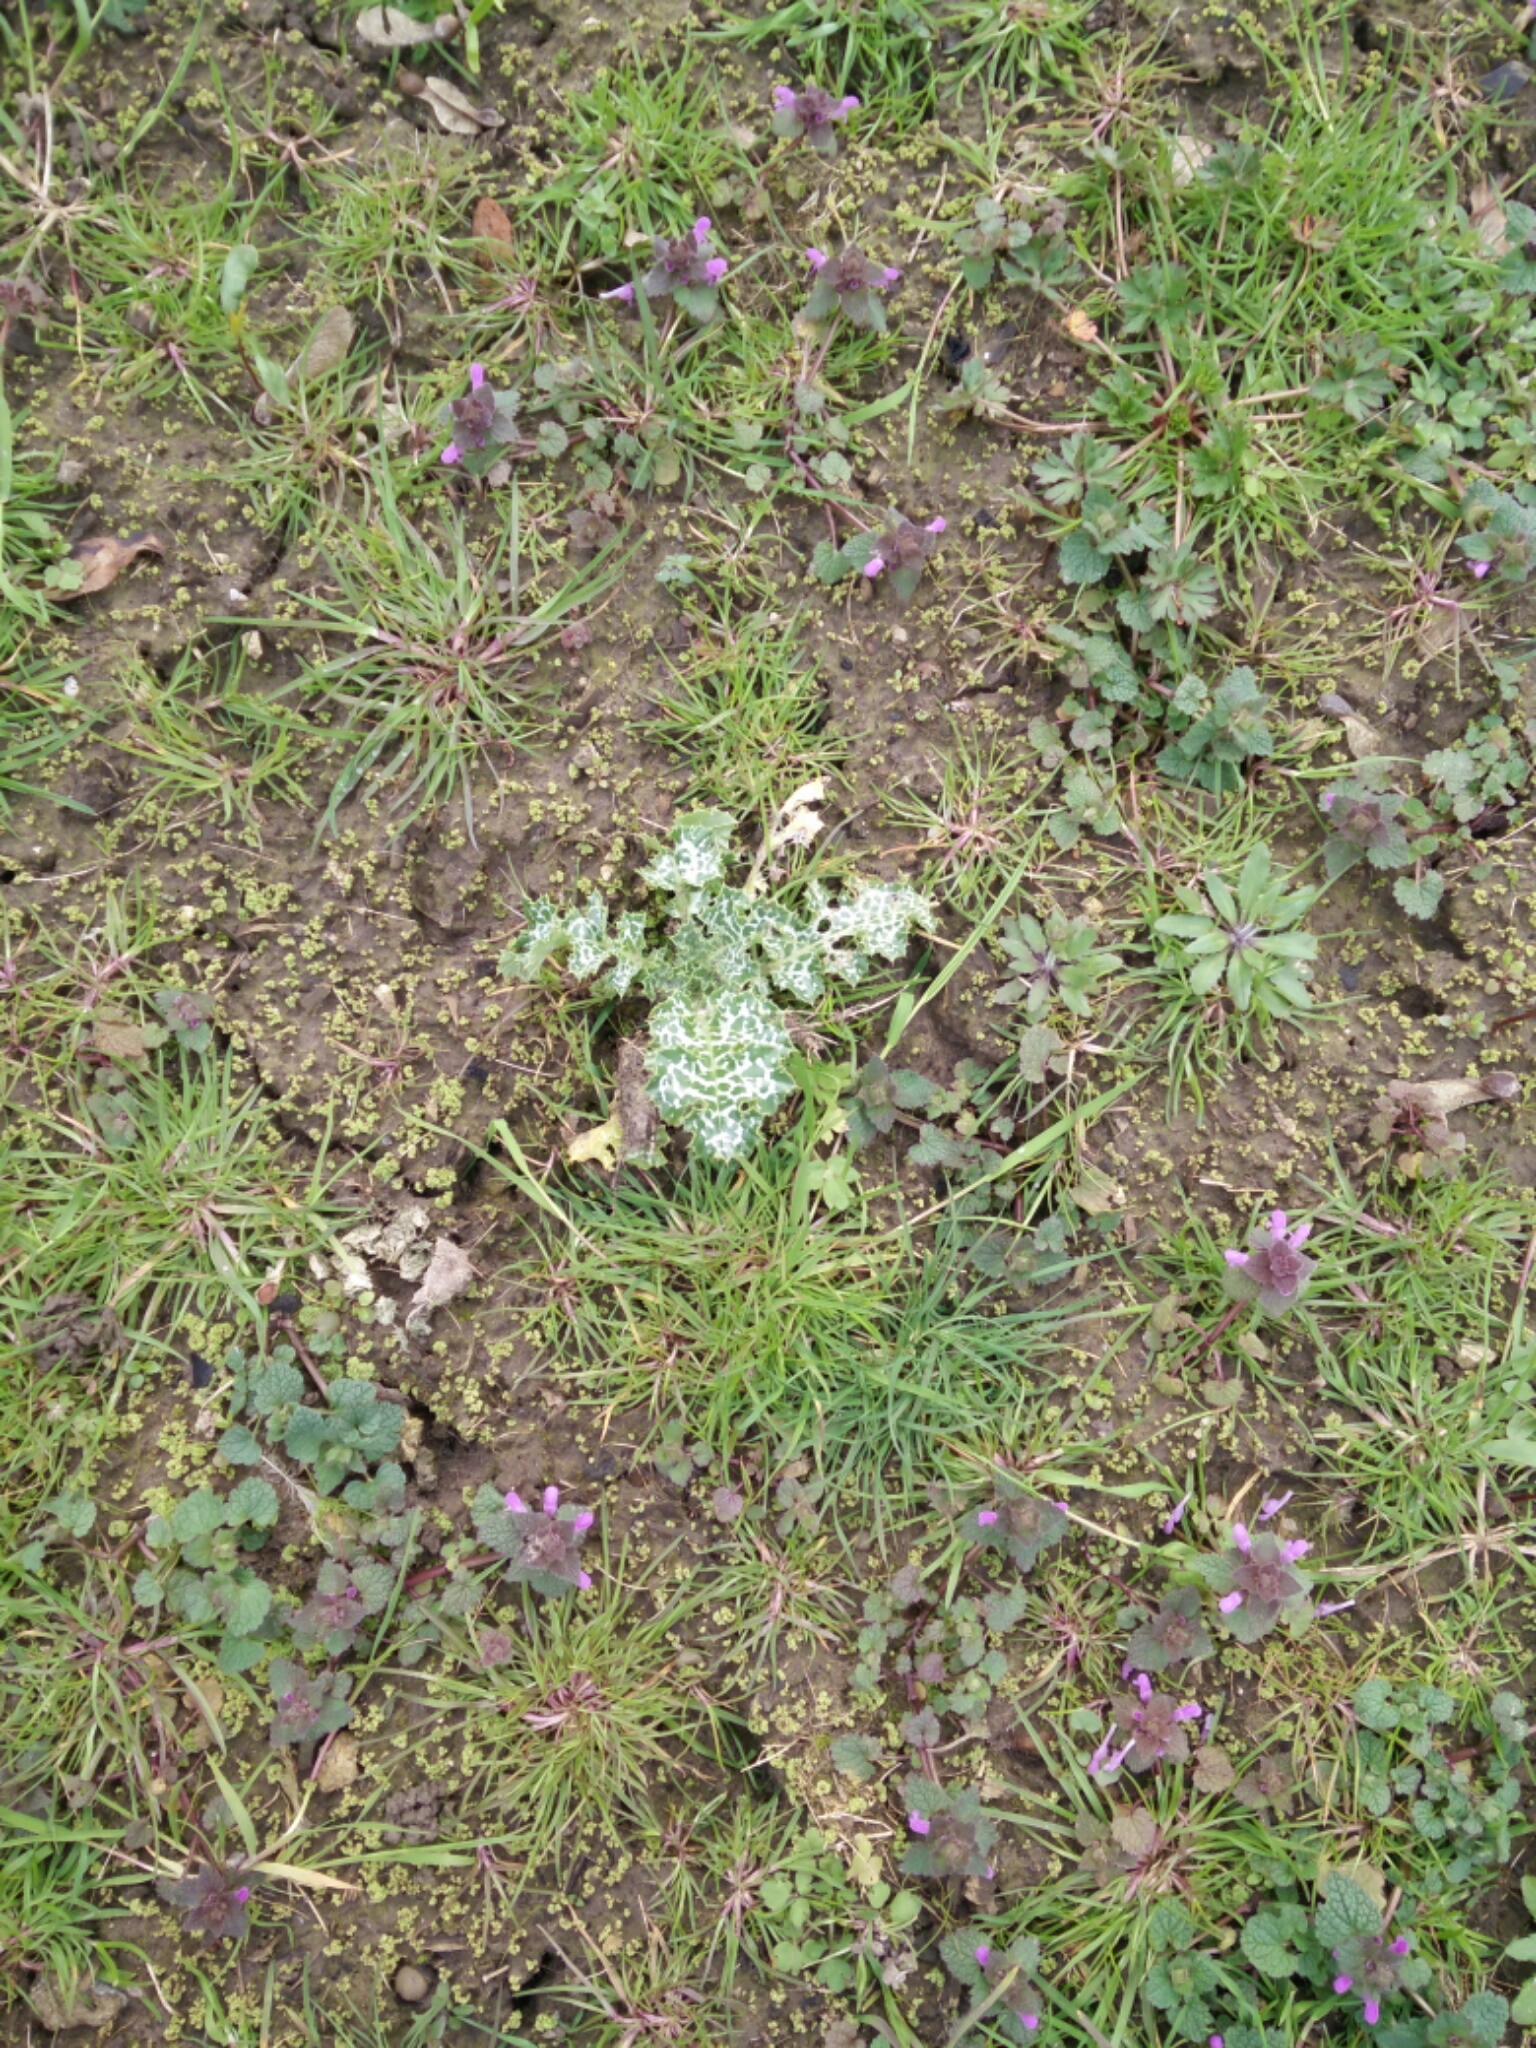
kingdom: Plantae
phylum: Tracheophyta
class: Magnoliopsida
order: Asterales
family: Asteraceae
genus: Silybum
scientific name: Silybum marianum
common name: Milk thistle
